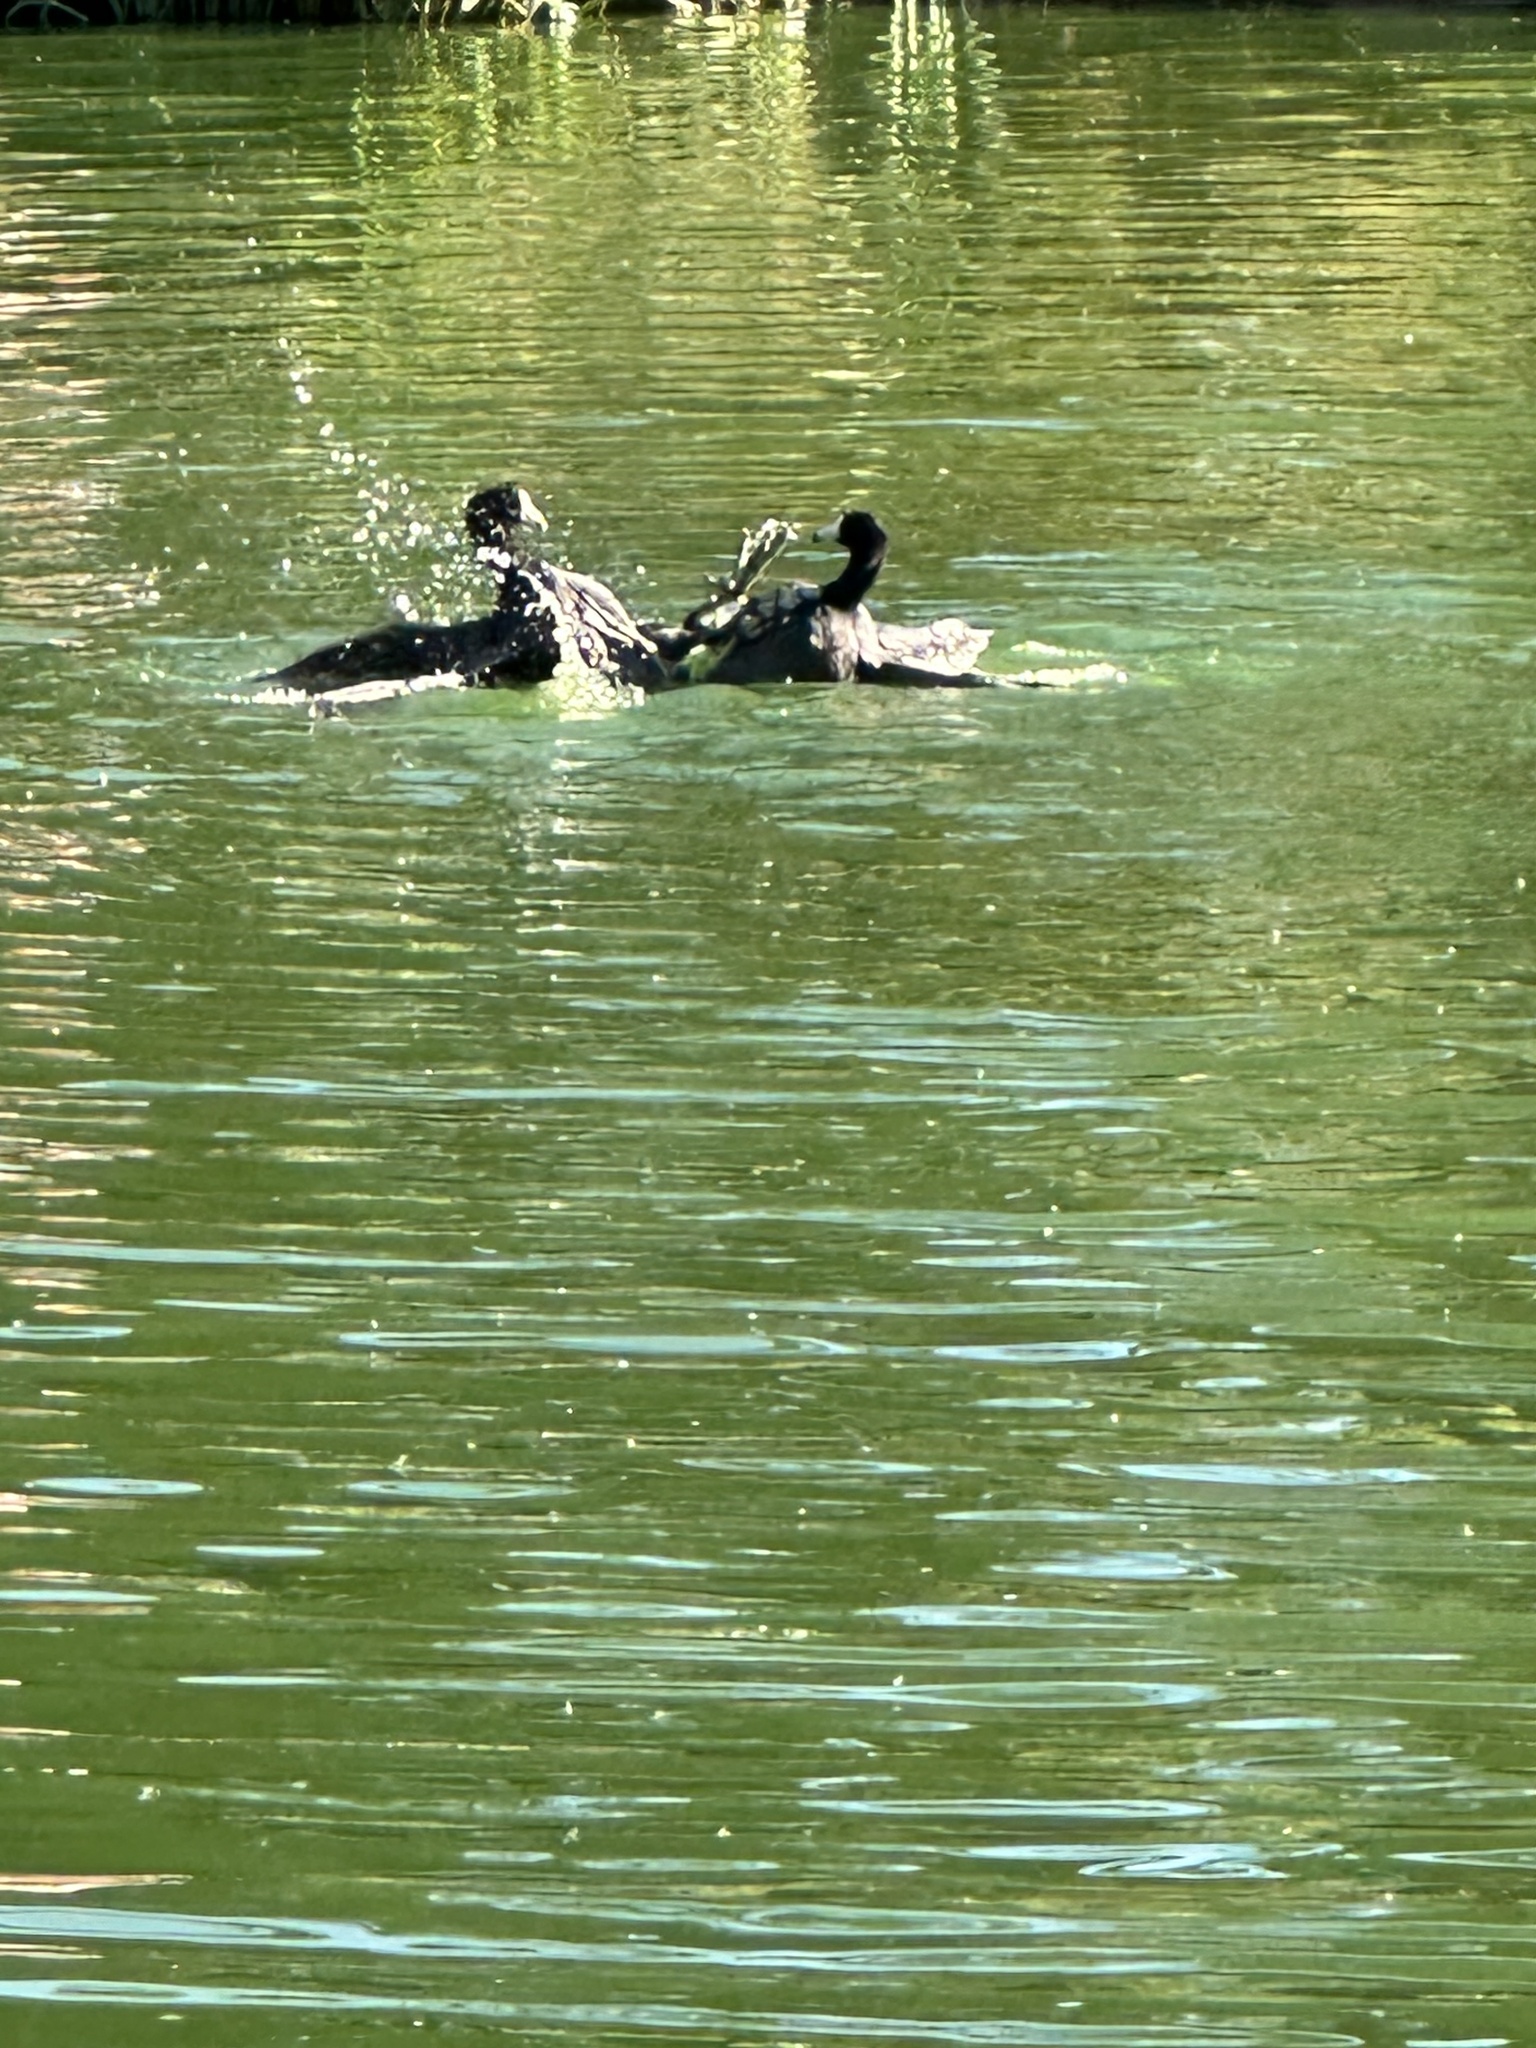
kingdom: Animalia
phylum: Chordata
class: Aves
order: Gruiformes
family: Rallidae
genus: Fulica
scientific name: Fulica americana
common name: American coot
